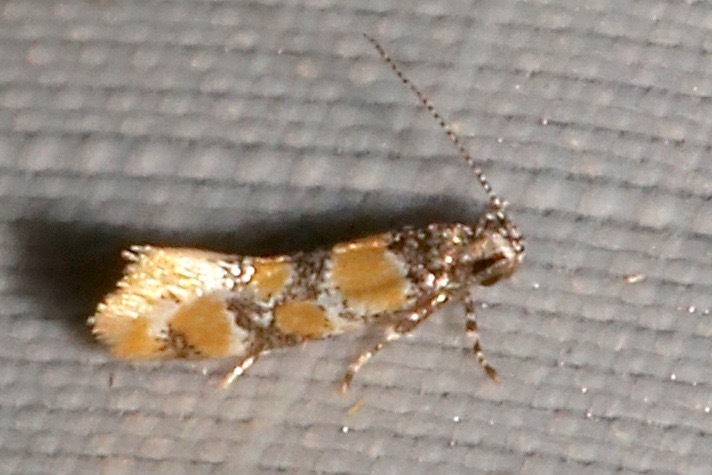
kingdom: Animalia
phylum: Arthropoda
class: Insecta
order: Lepidoptera
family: Oecophoridae
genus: Decantha
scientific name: Decantha stecia
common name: Small decantha moth
